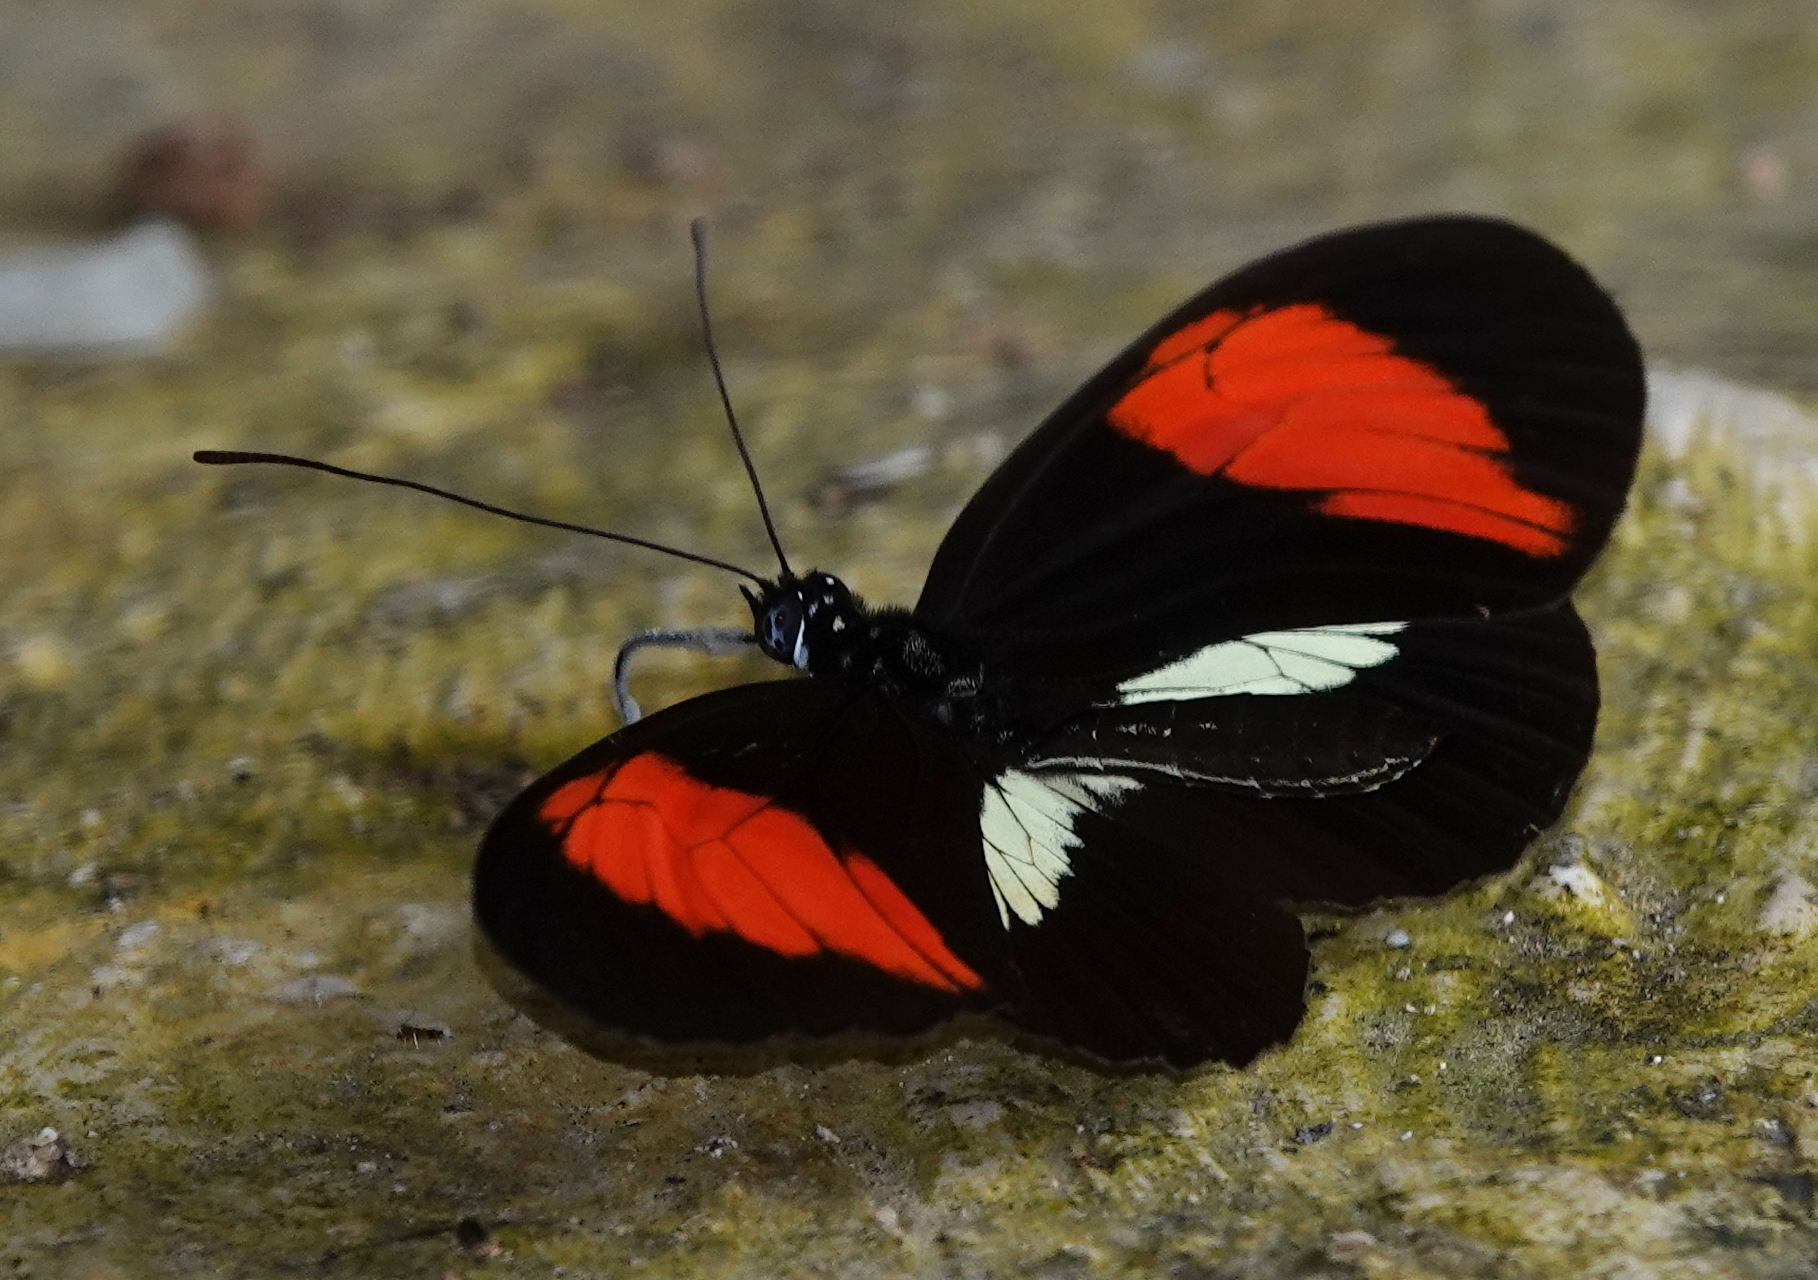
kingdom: Animalia
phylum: Arthropoda
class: Insecta
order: Lepidoptera
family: Nymphalidae
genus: Heliconius
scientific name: Heliconius melpomene
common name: Postman
